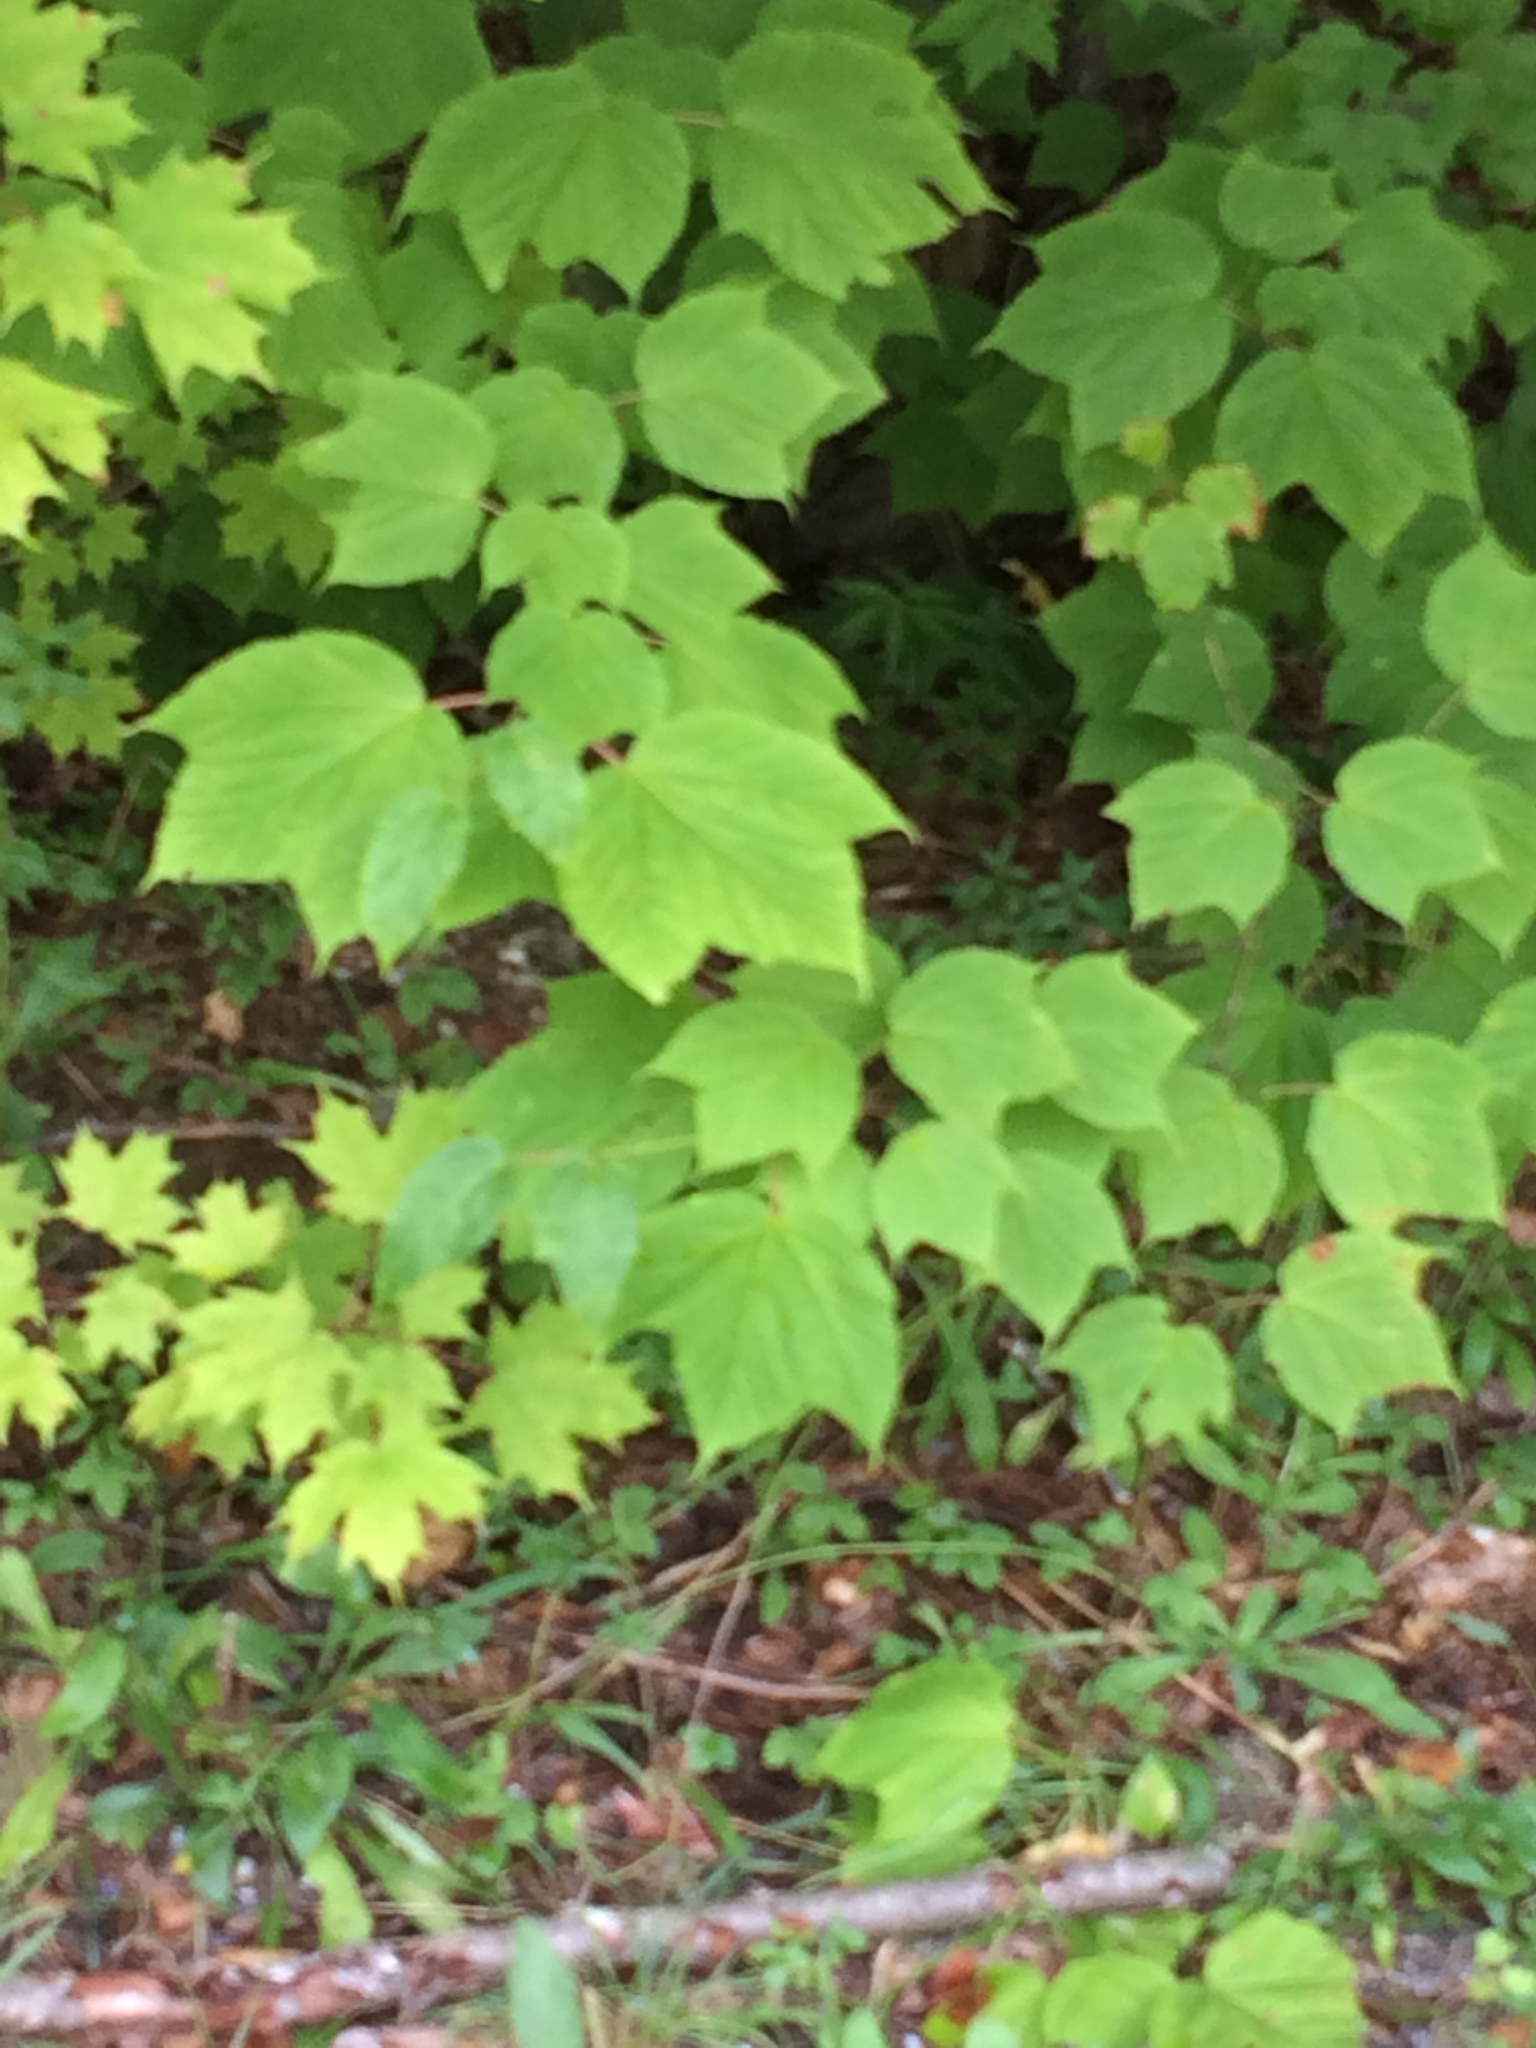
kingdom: Plantae
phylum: Tracheophyta
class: Magnoliopsida
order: Sapindales
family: Sapindaceae
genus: Acer
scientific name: Acer pensylvanicum
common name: Moosewood
